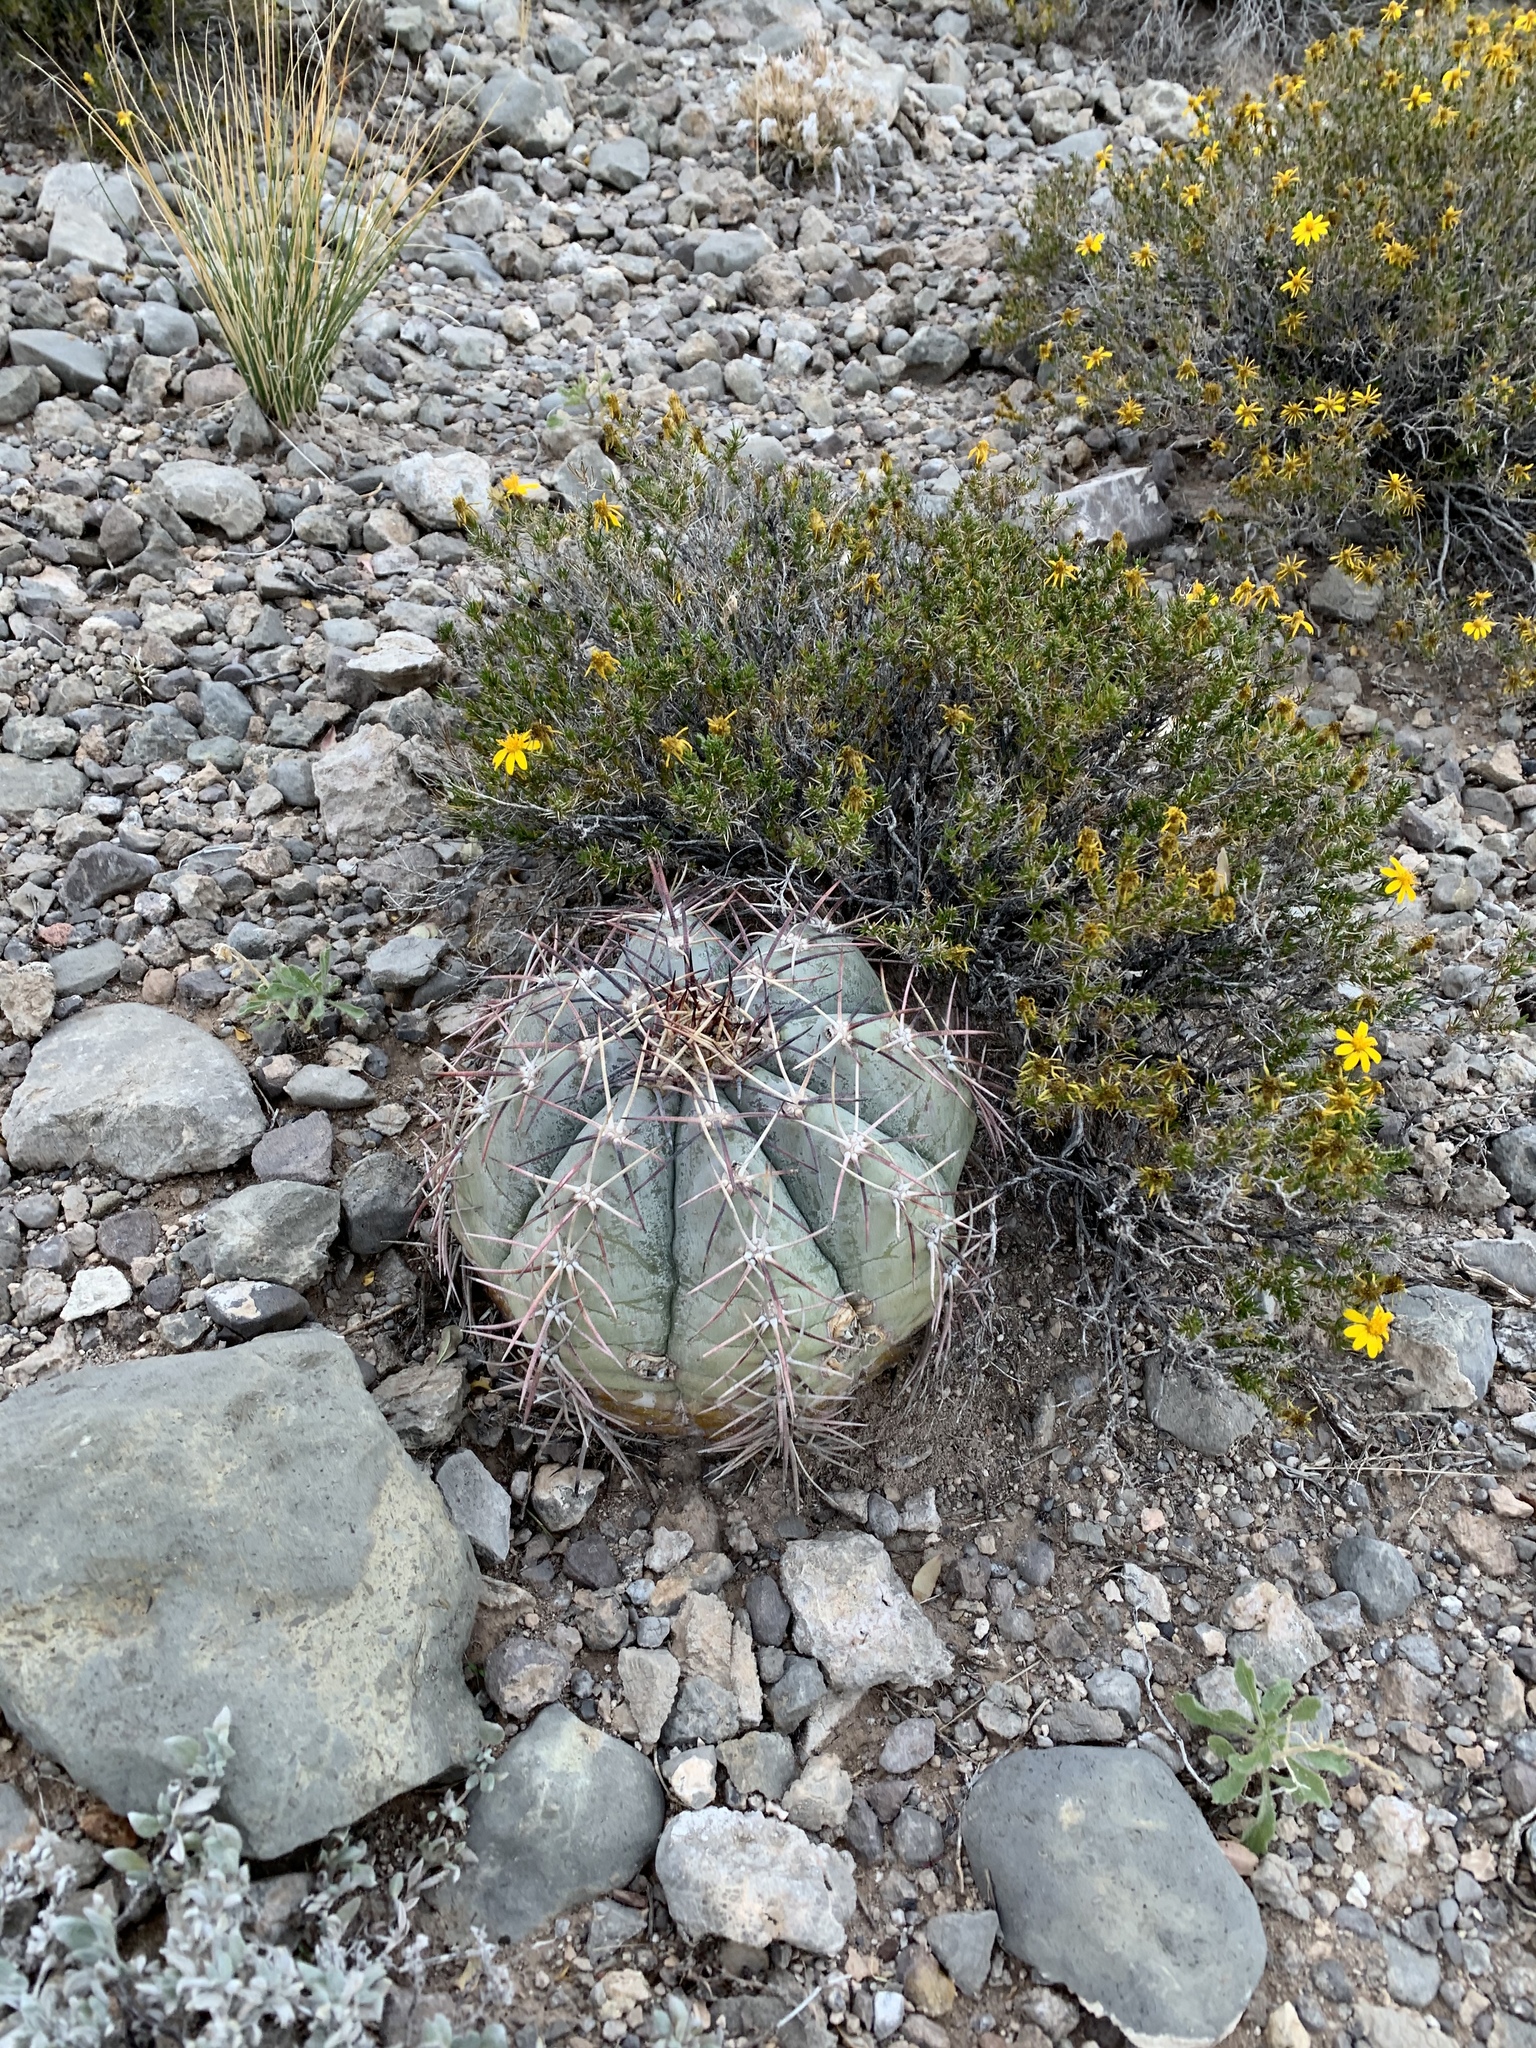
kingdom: Plantae
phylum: Tracheophyta
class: Magnoliopsida
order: Caryophyllales
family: Cactaceae
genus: Echinocactus
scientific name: Echinocactus horizonthalonius
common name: Devilshead
